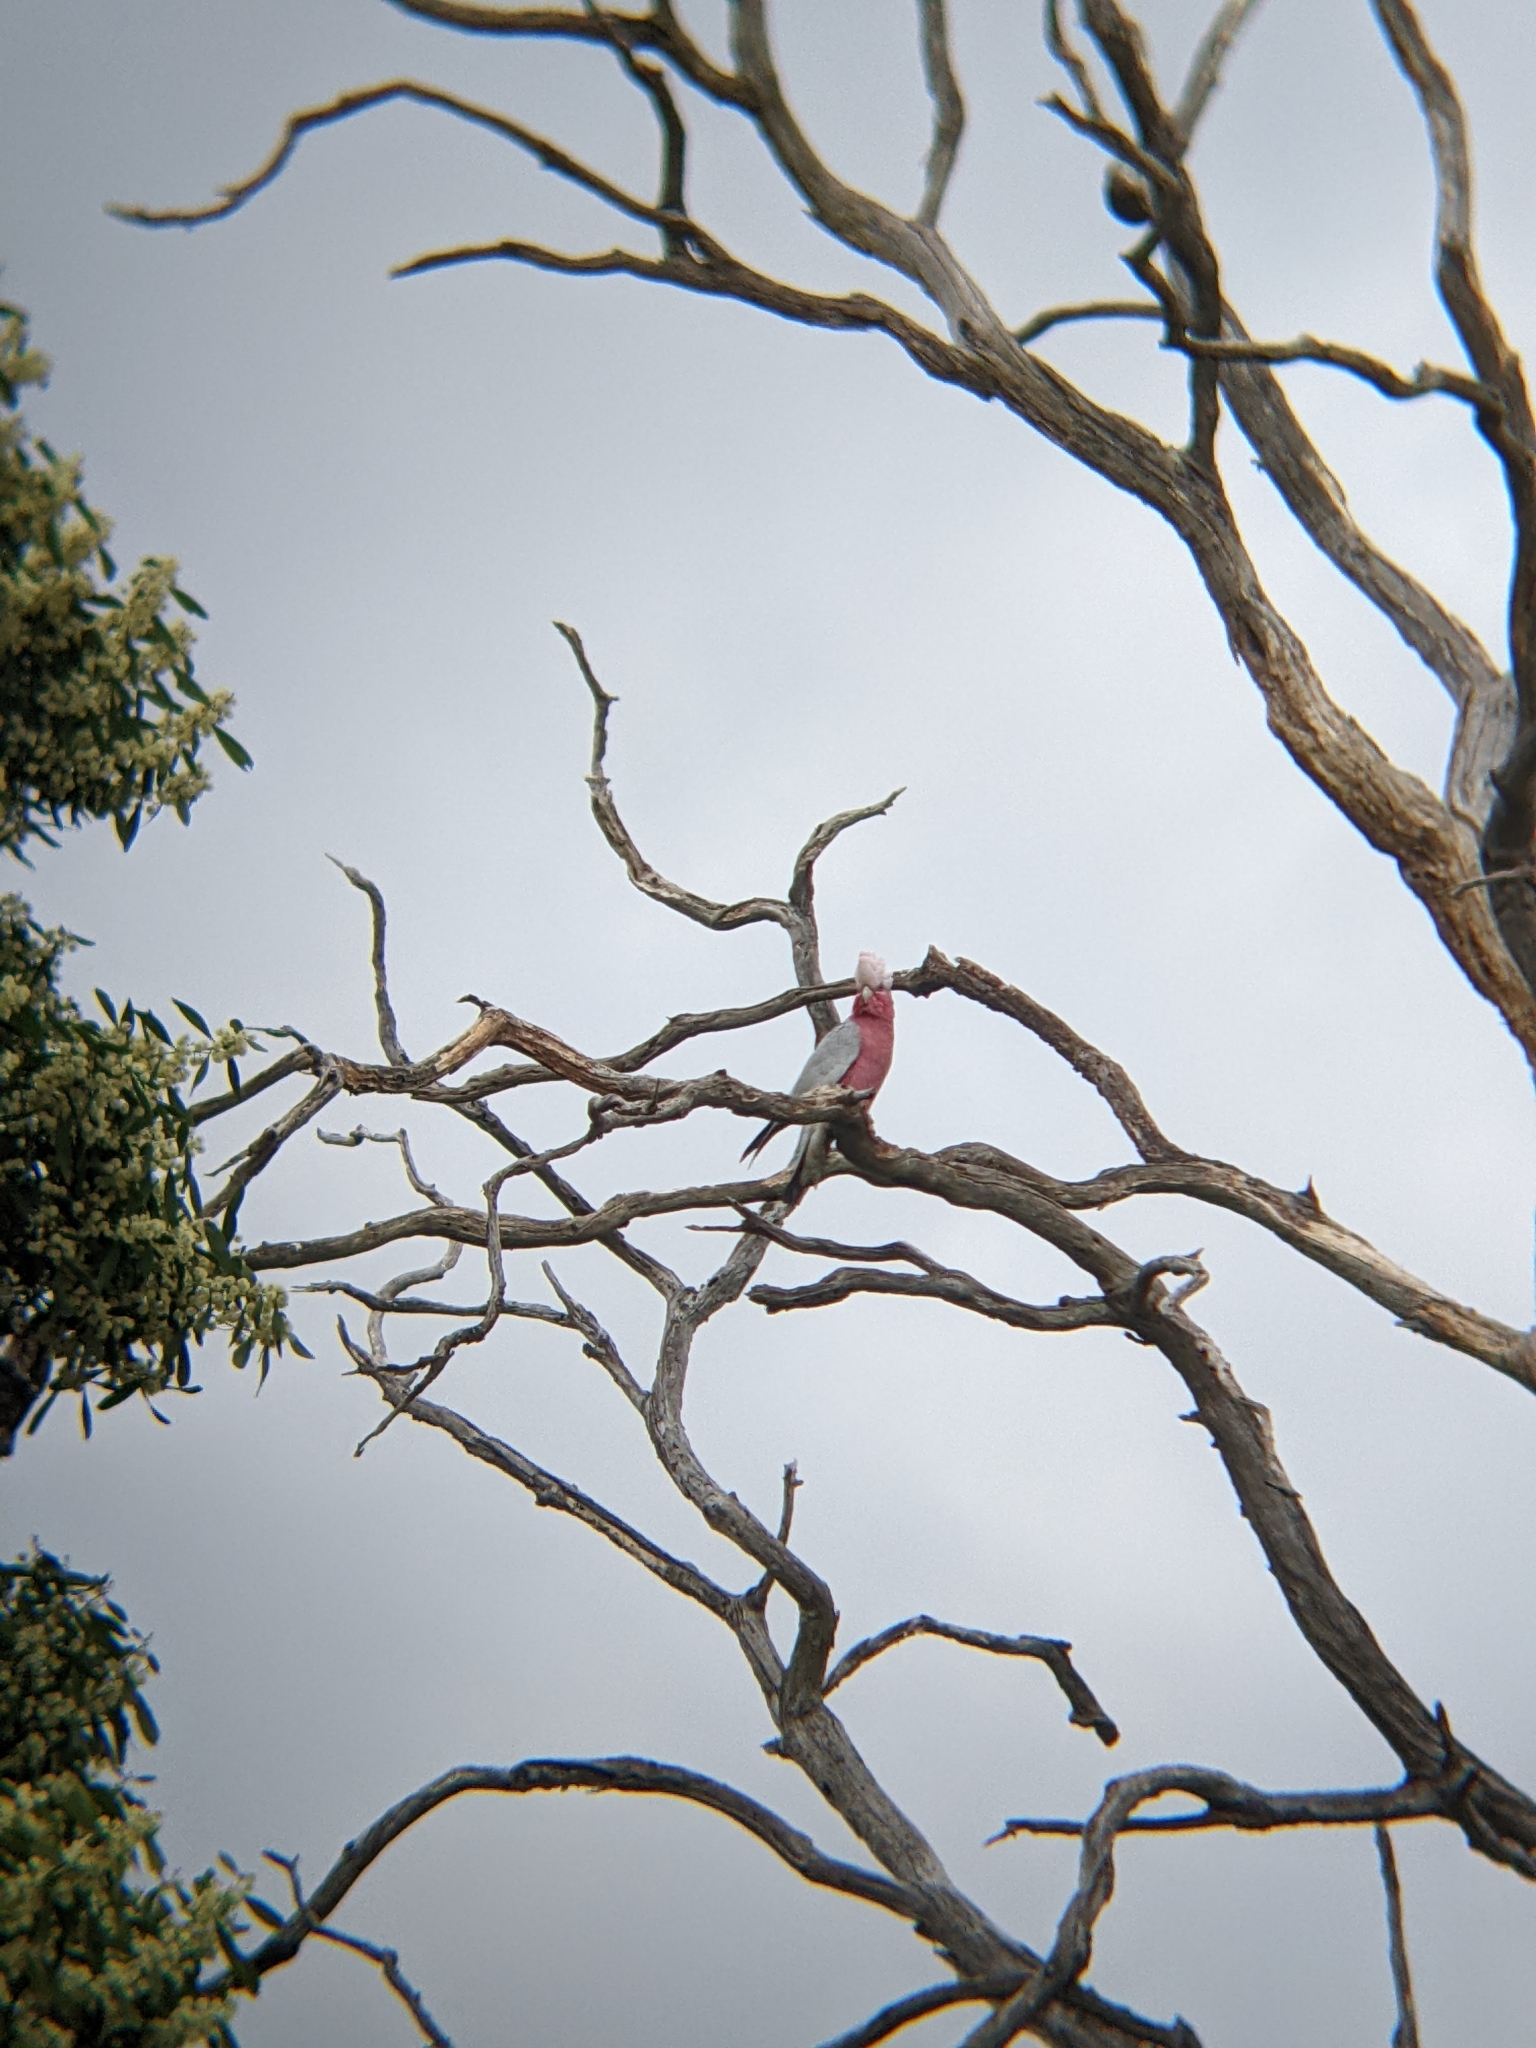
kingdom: Animalia
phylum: Chordata
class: Aves
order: Psittaciformes
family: Psittacidae
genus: Eolophus
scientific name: Eolophus roseicapilla
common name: Galah
